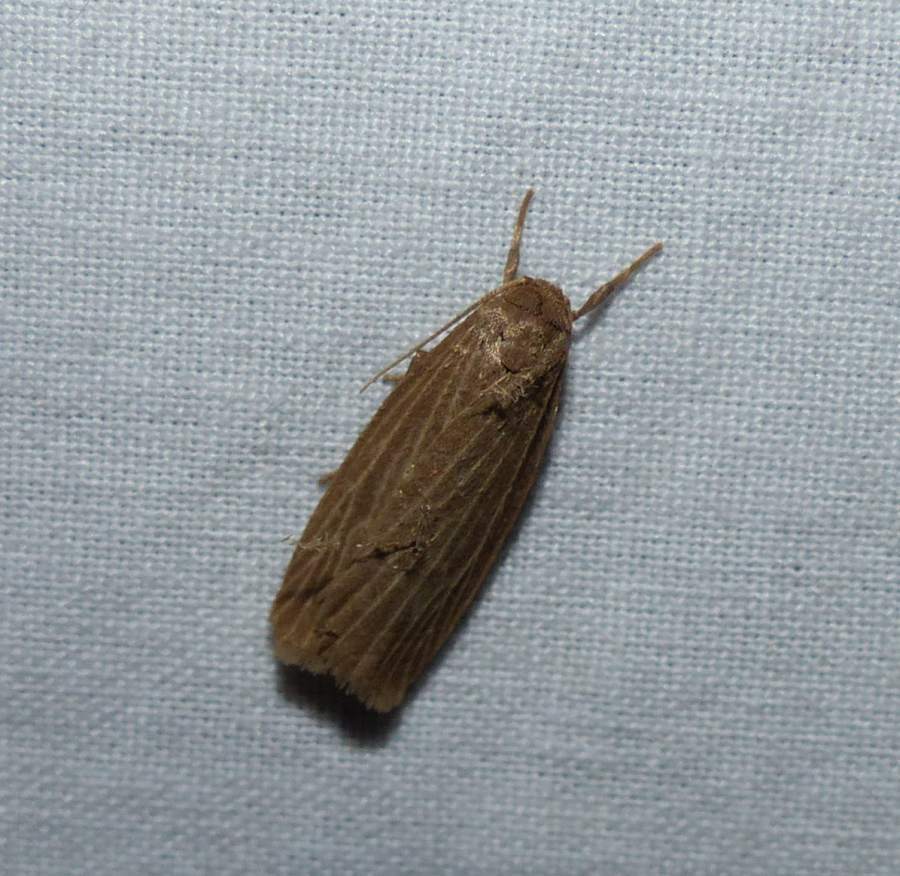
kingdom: Animalia
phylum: Arthropoda
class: Insecta
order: Lepidoptera
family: Erebidae
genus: Crambidia
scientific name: Crambidia pallida
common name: Pale lichen moth
